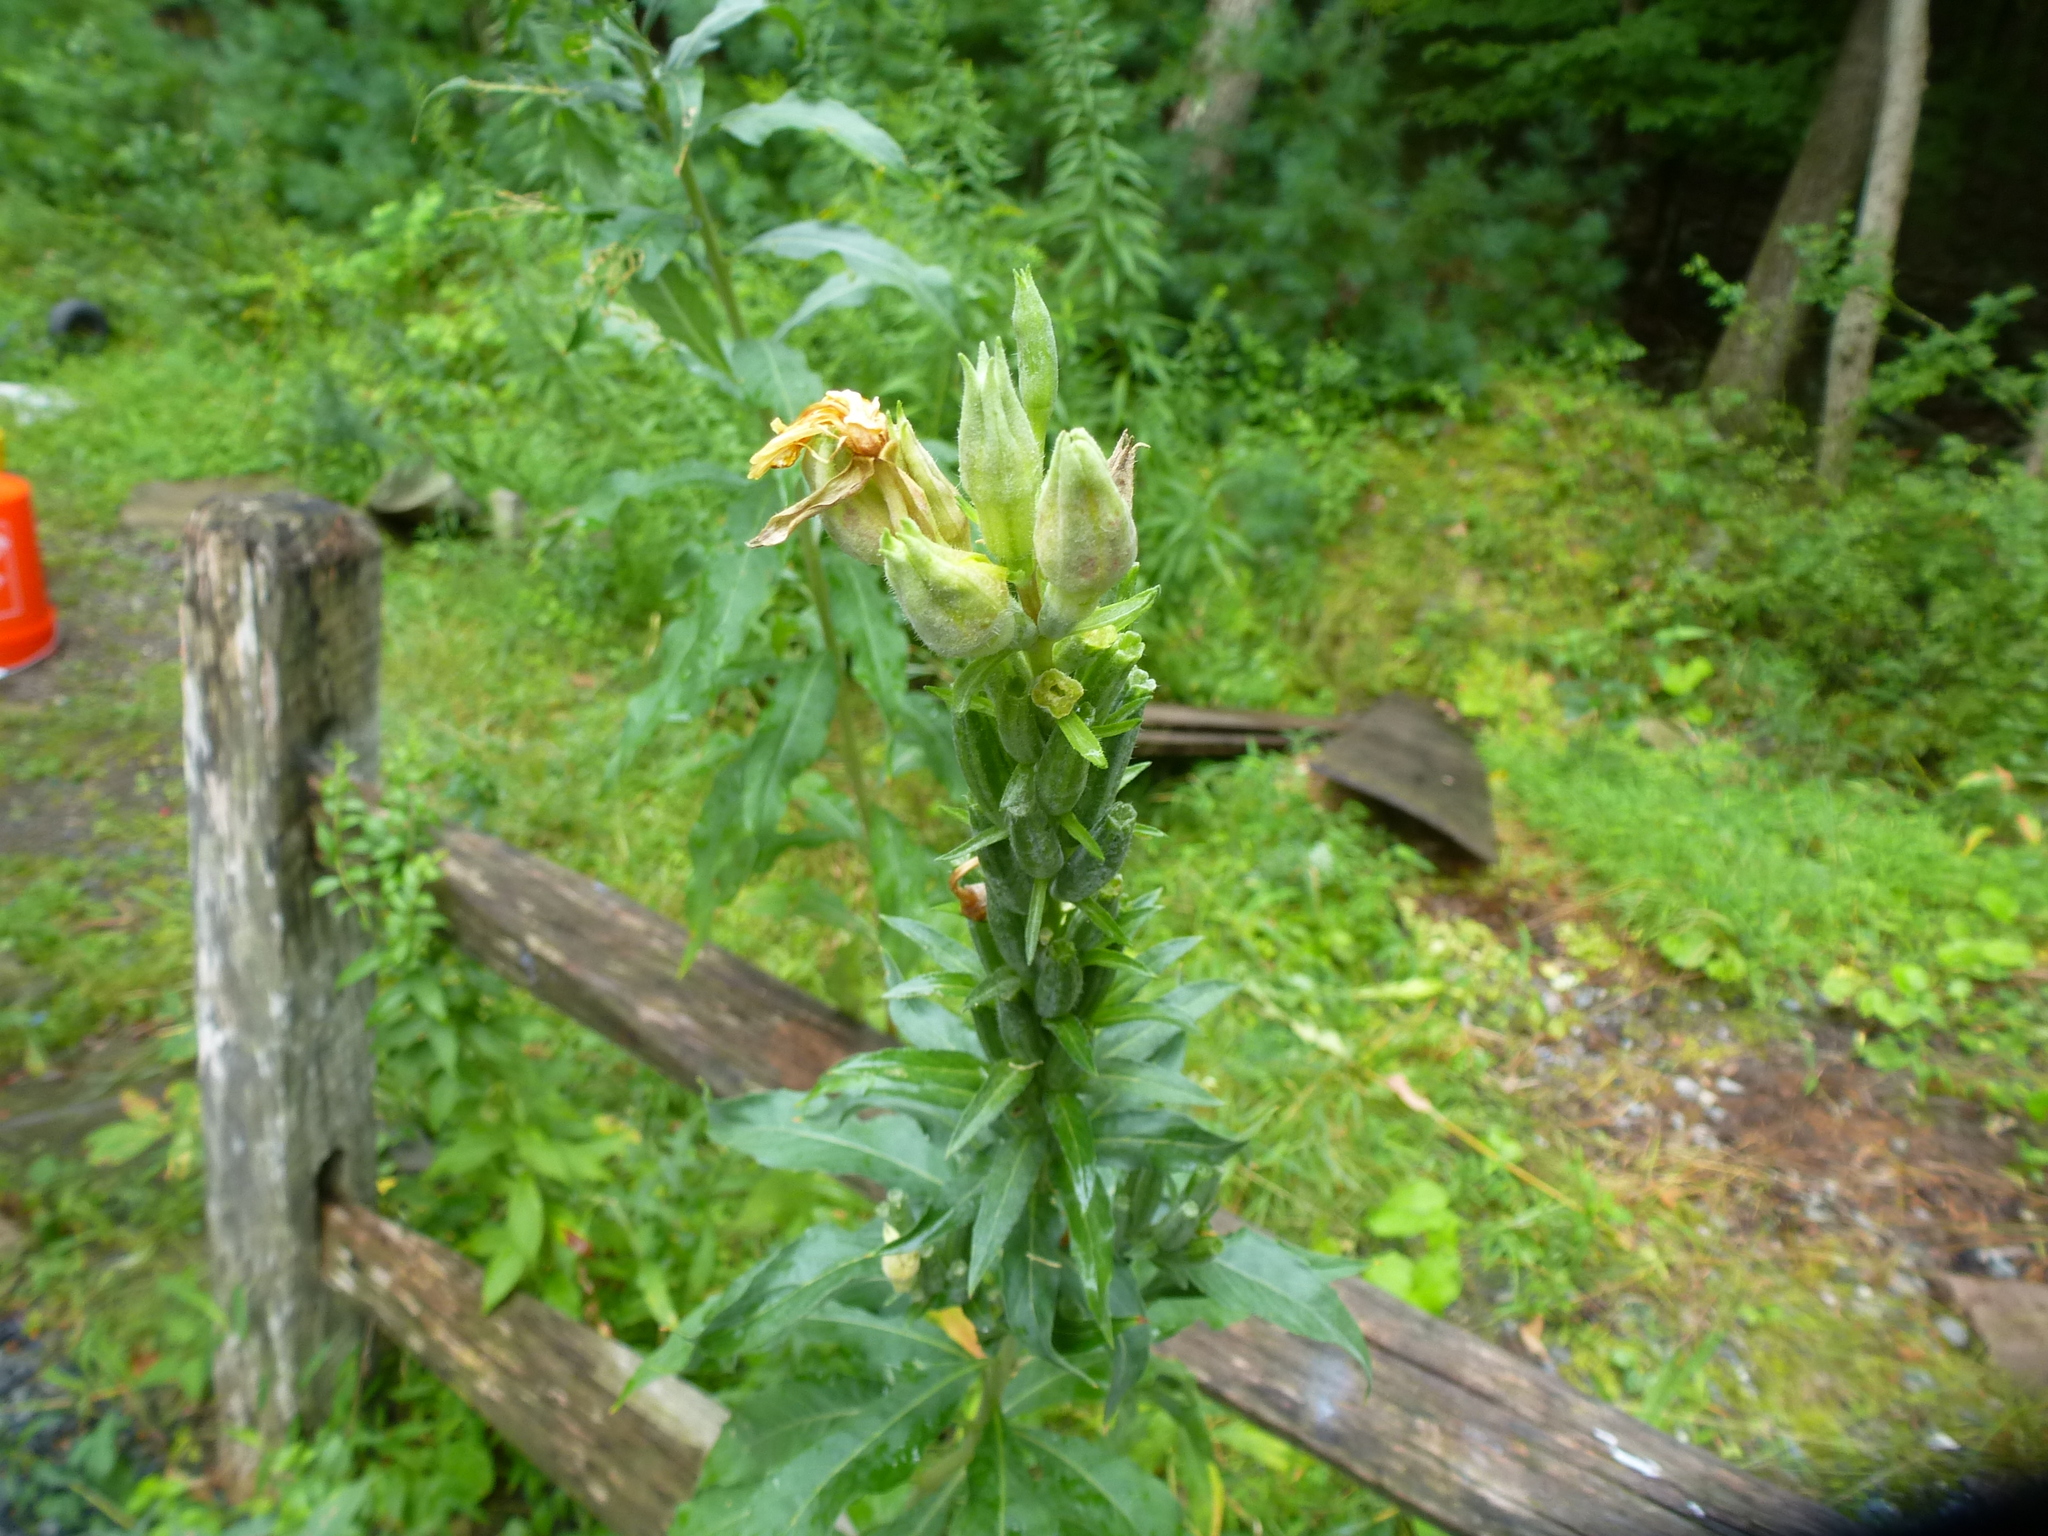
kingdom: Plantae
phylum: Tracheophyta
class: Magnoliopsida
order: Myrtales
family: Onagraceae
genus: Oenothera
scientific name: Oenothera biennis
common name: Common evening-primrose
